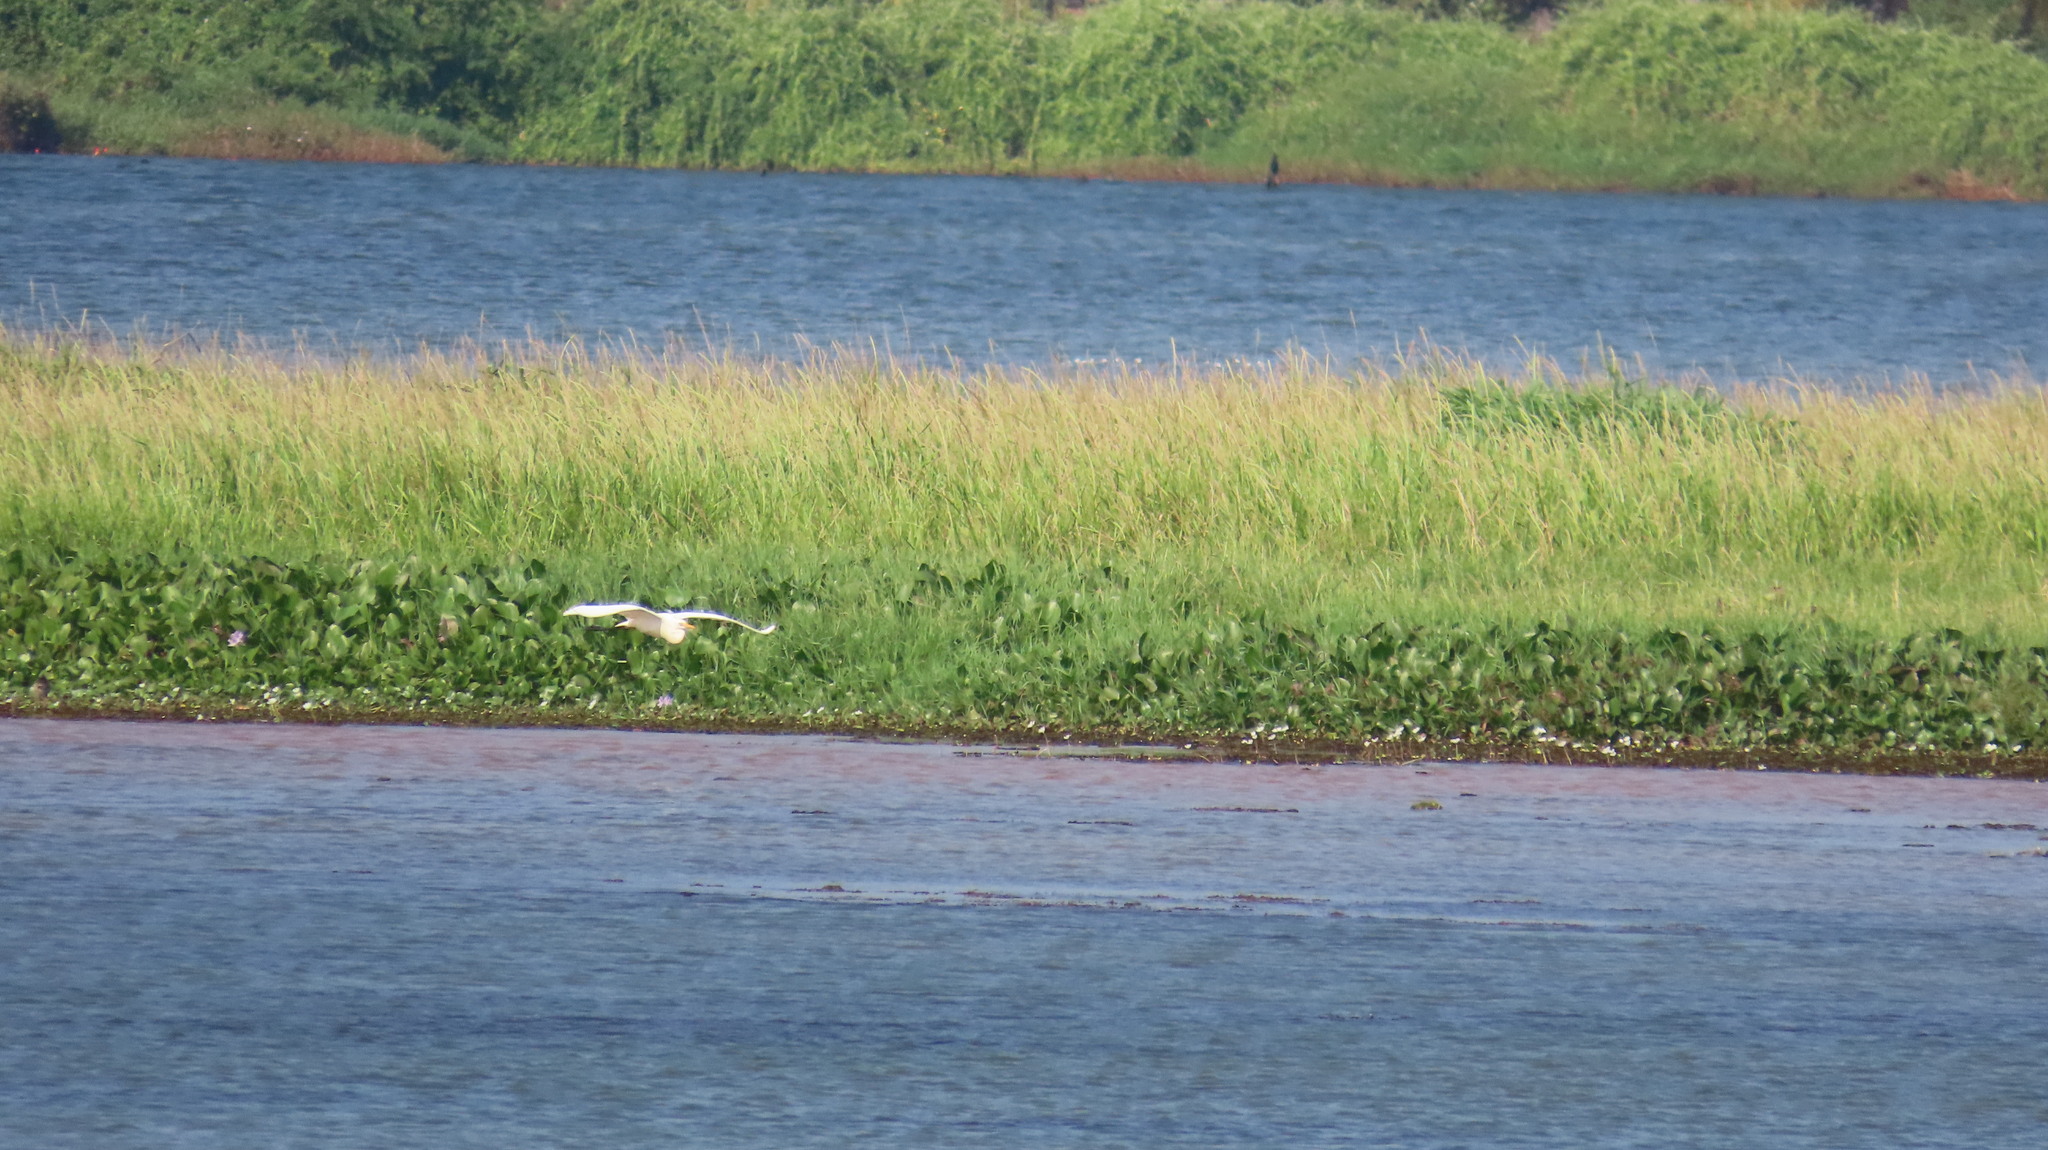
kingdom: Animalia
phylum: Chordata
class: Aves
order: Pelecaniformes
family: Ardeidae
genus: Egretta
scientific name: Egretta intermedia
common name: Intermediate egret
